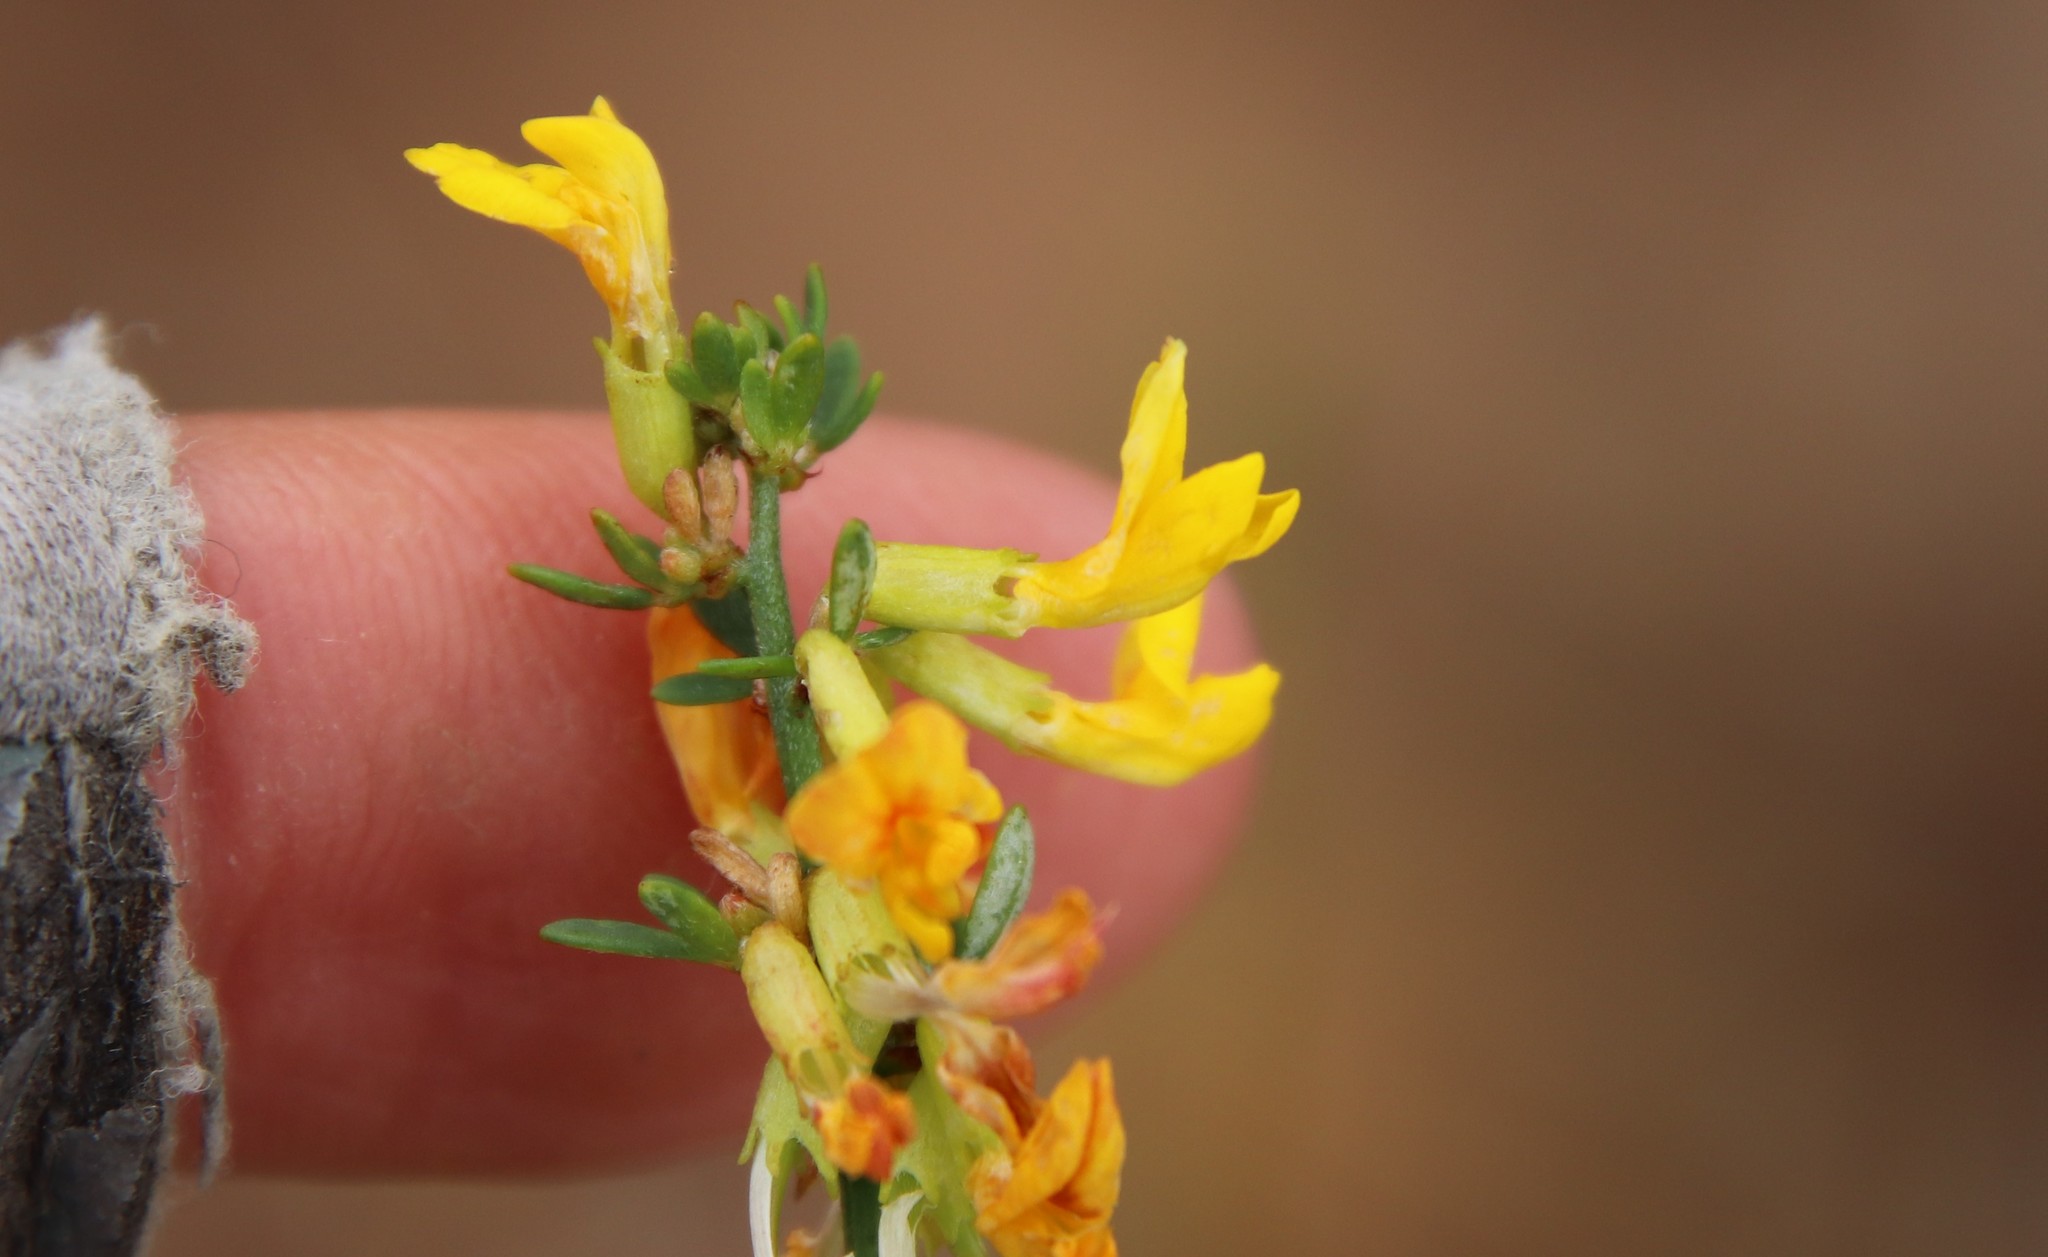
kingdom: Plantae
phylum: Tracheophyta
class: Magnoliopsida
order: Fabales
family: Fabaceae
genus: Acmispon
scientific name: Acmispon glaber
